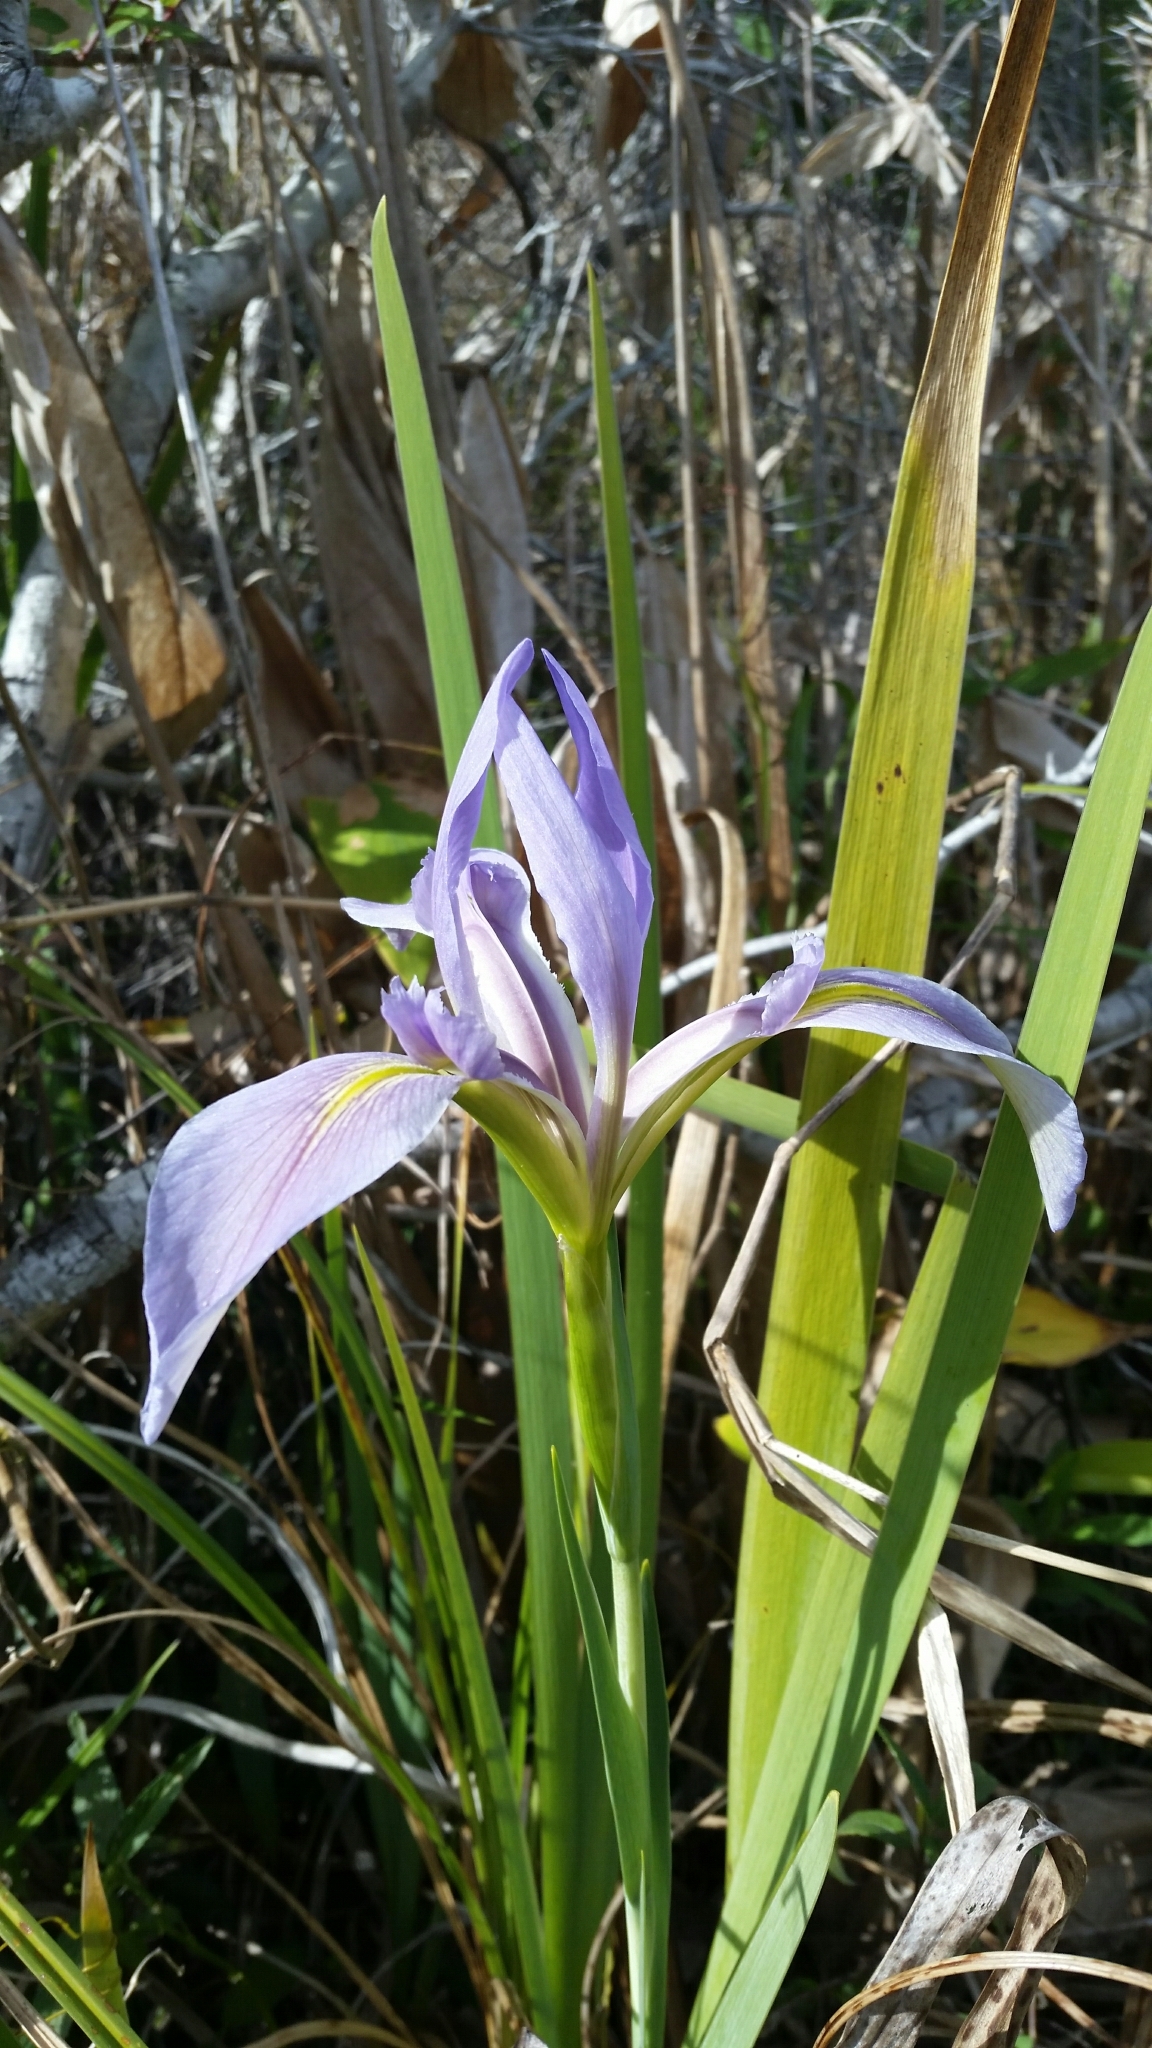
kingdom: Plantae
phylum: Tracheophyta
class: Liliopsida
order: Asparagales
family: Iridaceae
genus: Iris
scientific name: Iris savannarum
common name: Prairie iris
